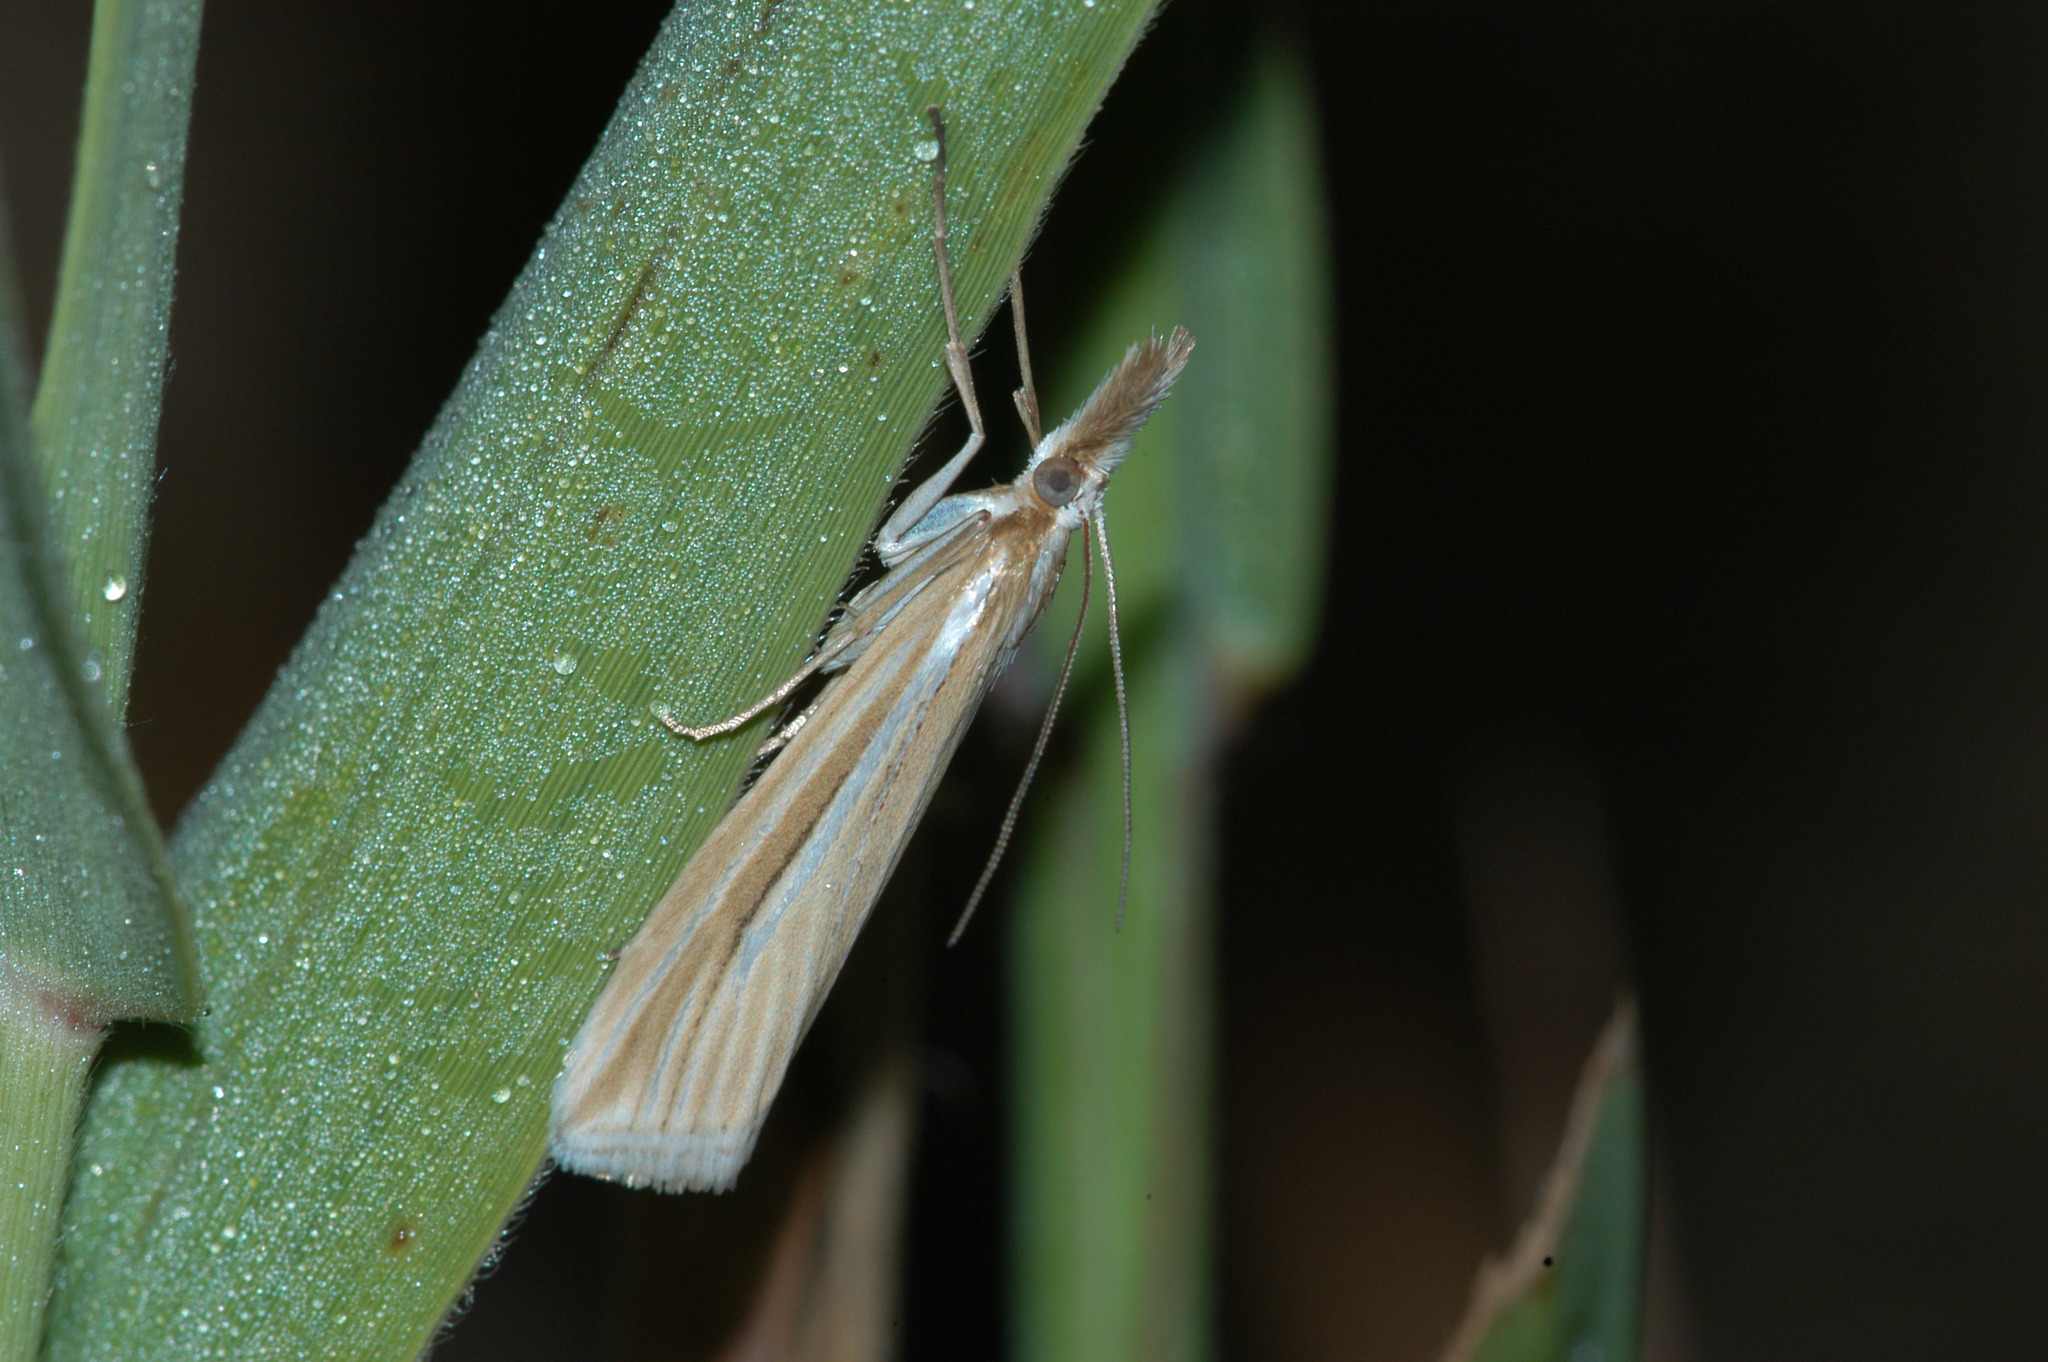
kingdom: Animalia
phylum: Arthropoda
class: Insecta
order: Lepidoptera
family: Crambidae
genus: Hednota
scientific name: Hednota grammellus
